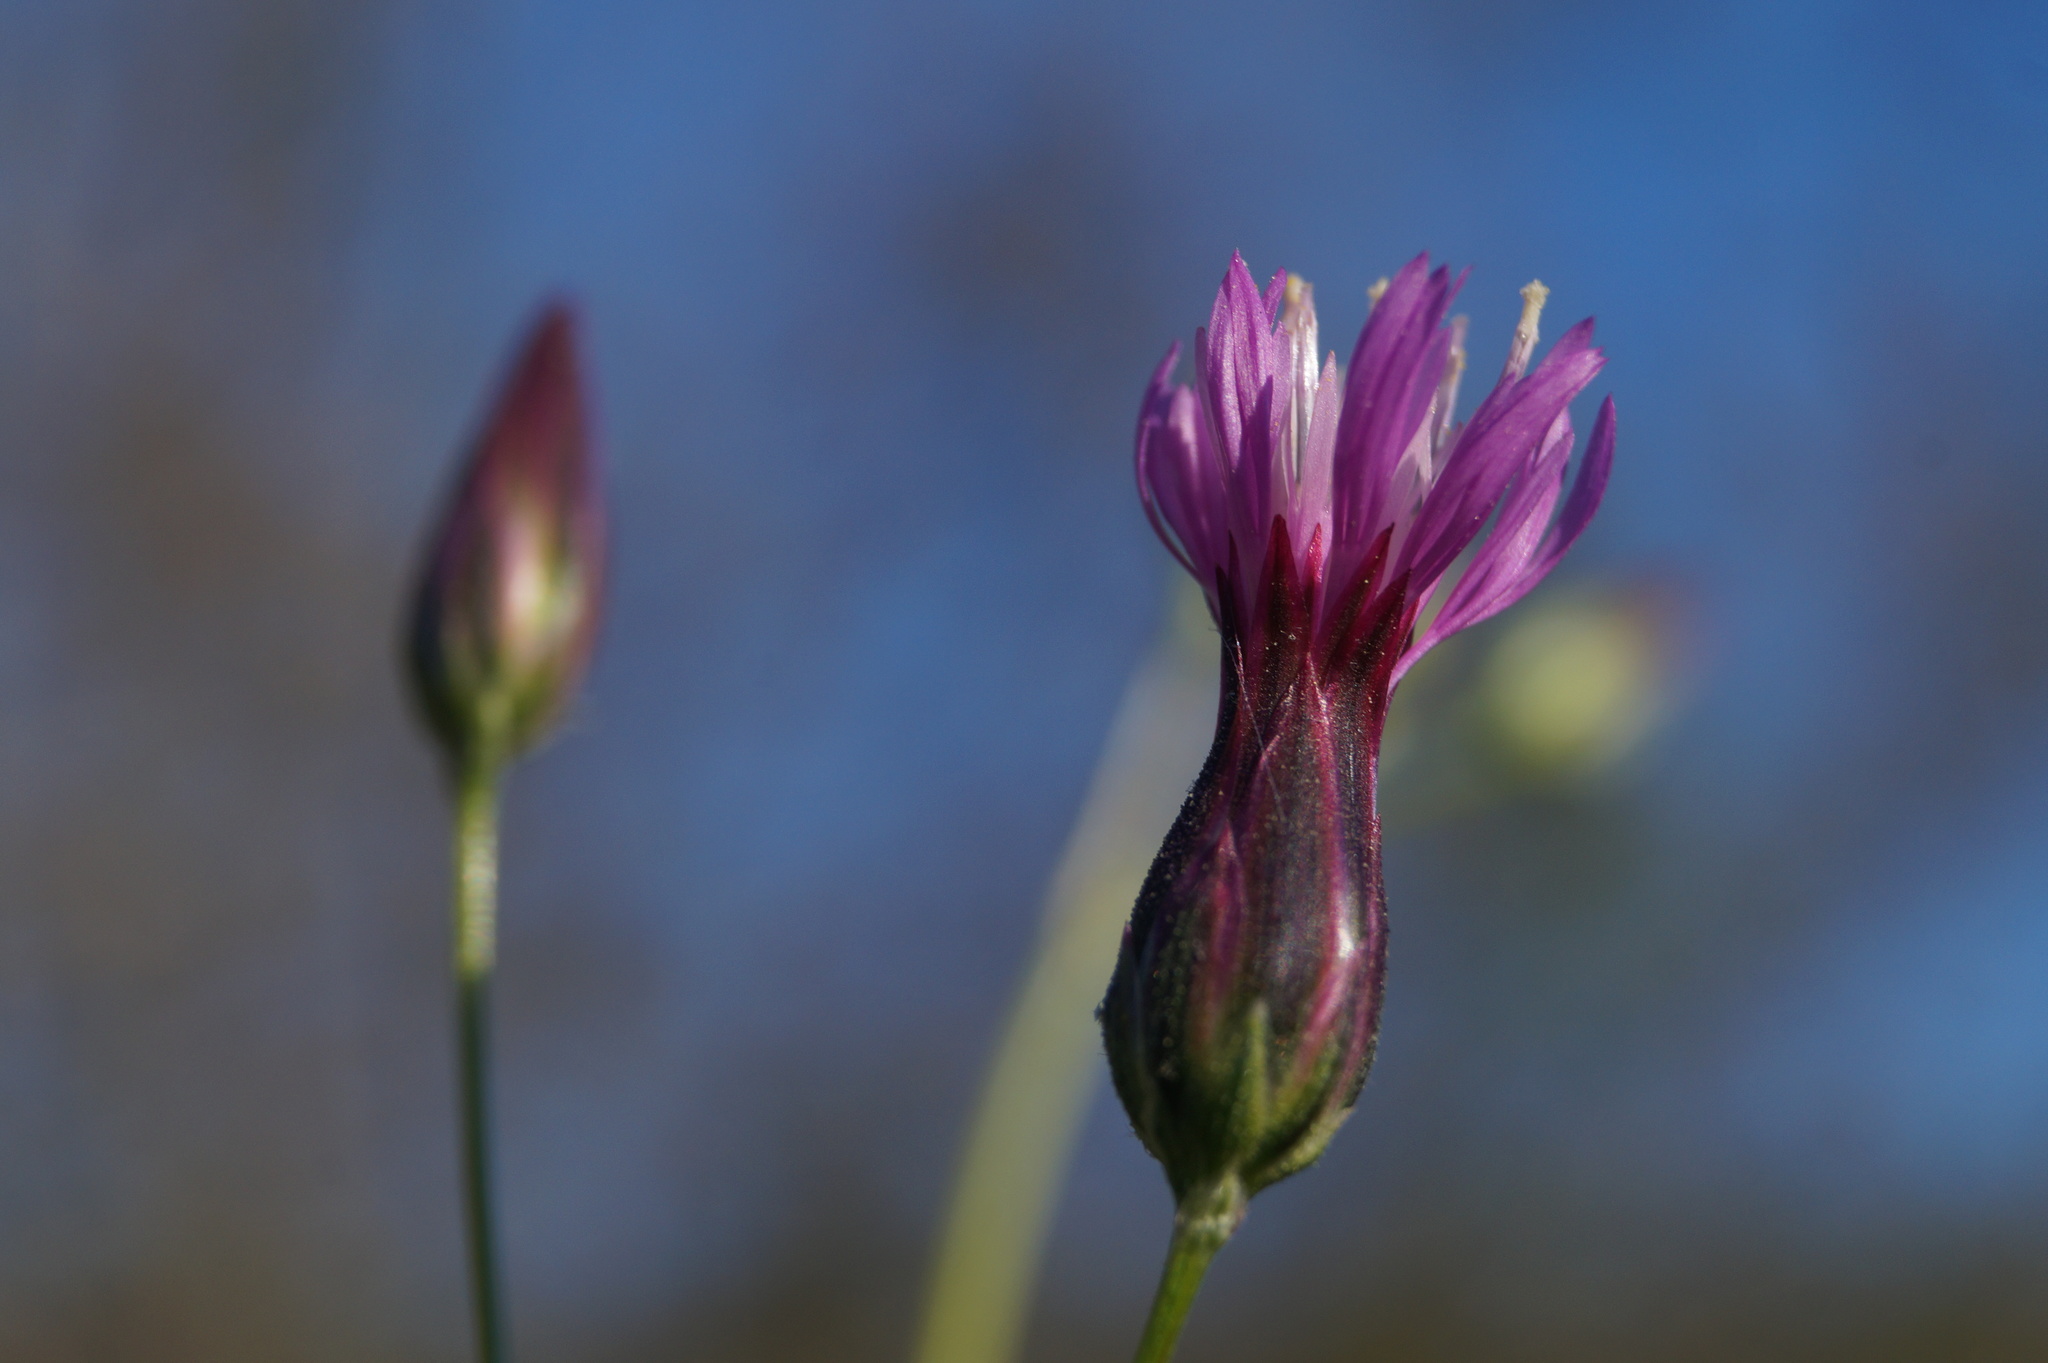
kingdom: Plantae
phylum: Tracheophyta
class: Magnoliopsida
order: Asterales
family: Asteraceae
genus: Crupina
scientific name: Crupina vulgaris
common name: Common crupina
